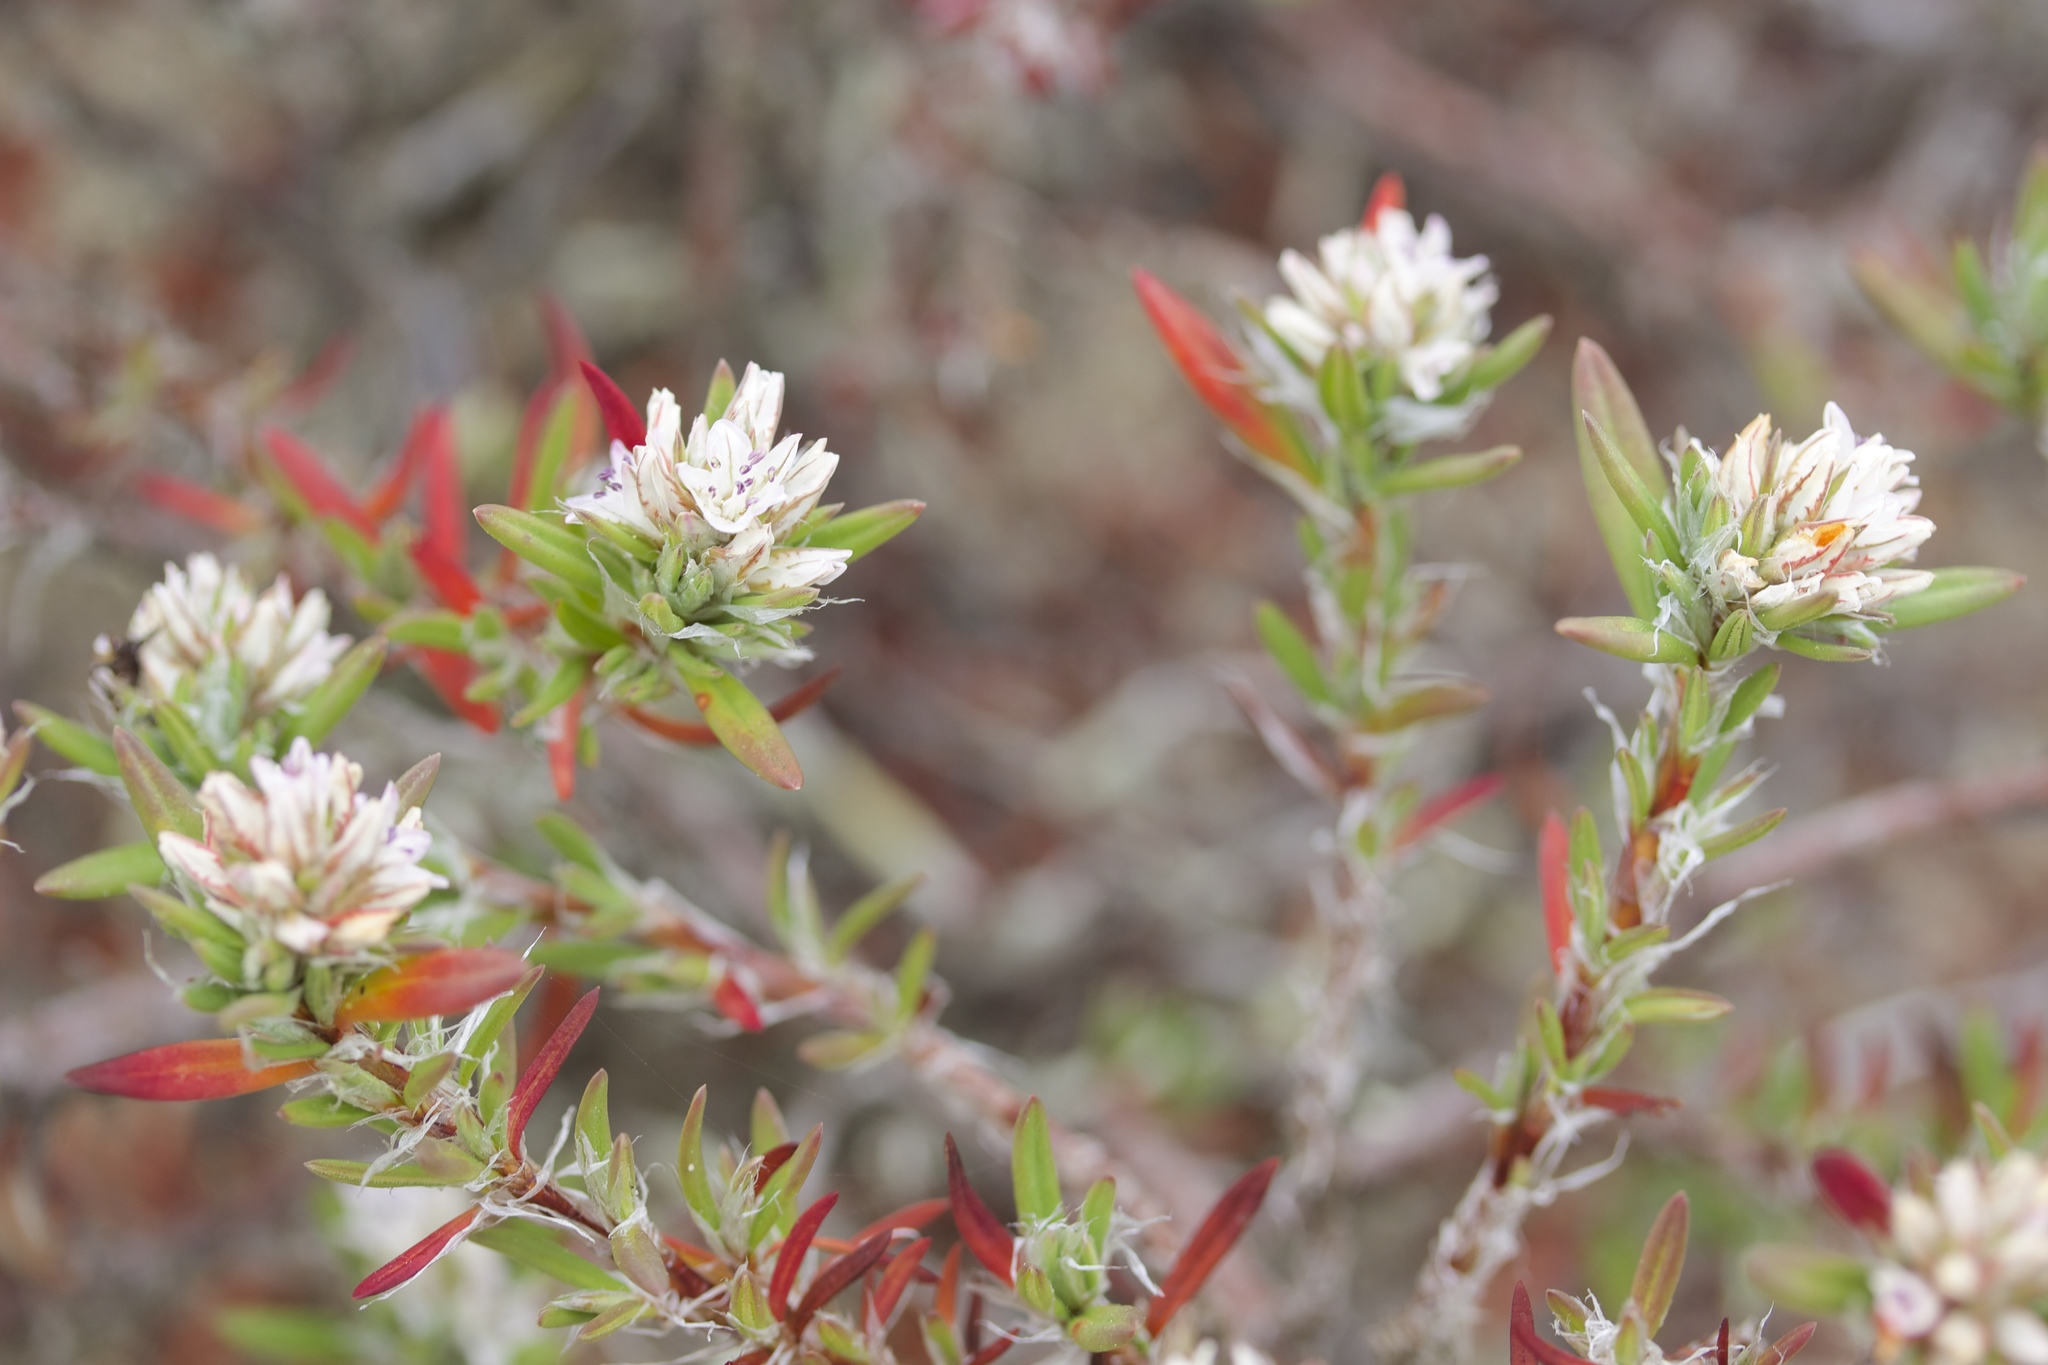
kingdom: Plantae
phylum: Tracheophyta
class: Magnoliopsida
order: Caryophyllales
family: Polygonaceae
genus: Polygonum
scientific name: Polygonum paronychia
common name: Dune knotweed
